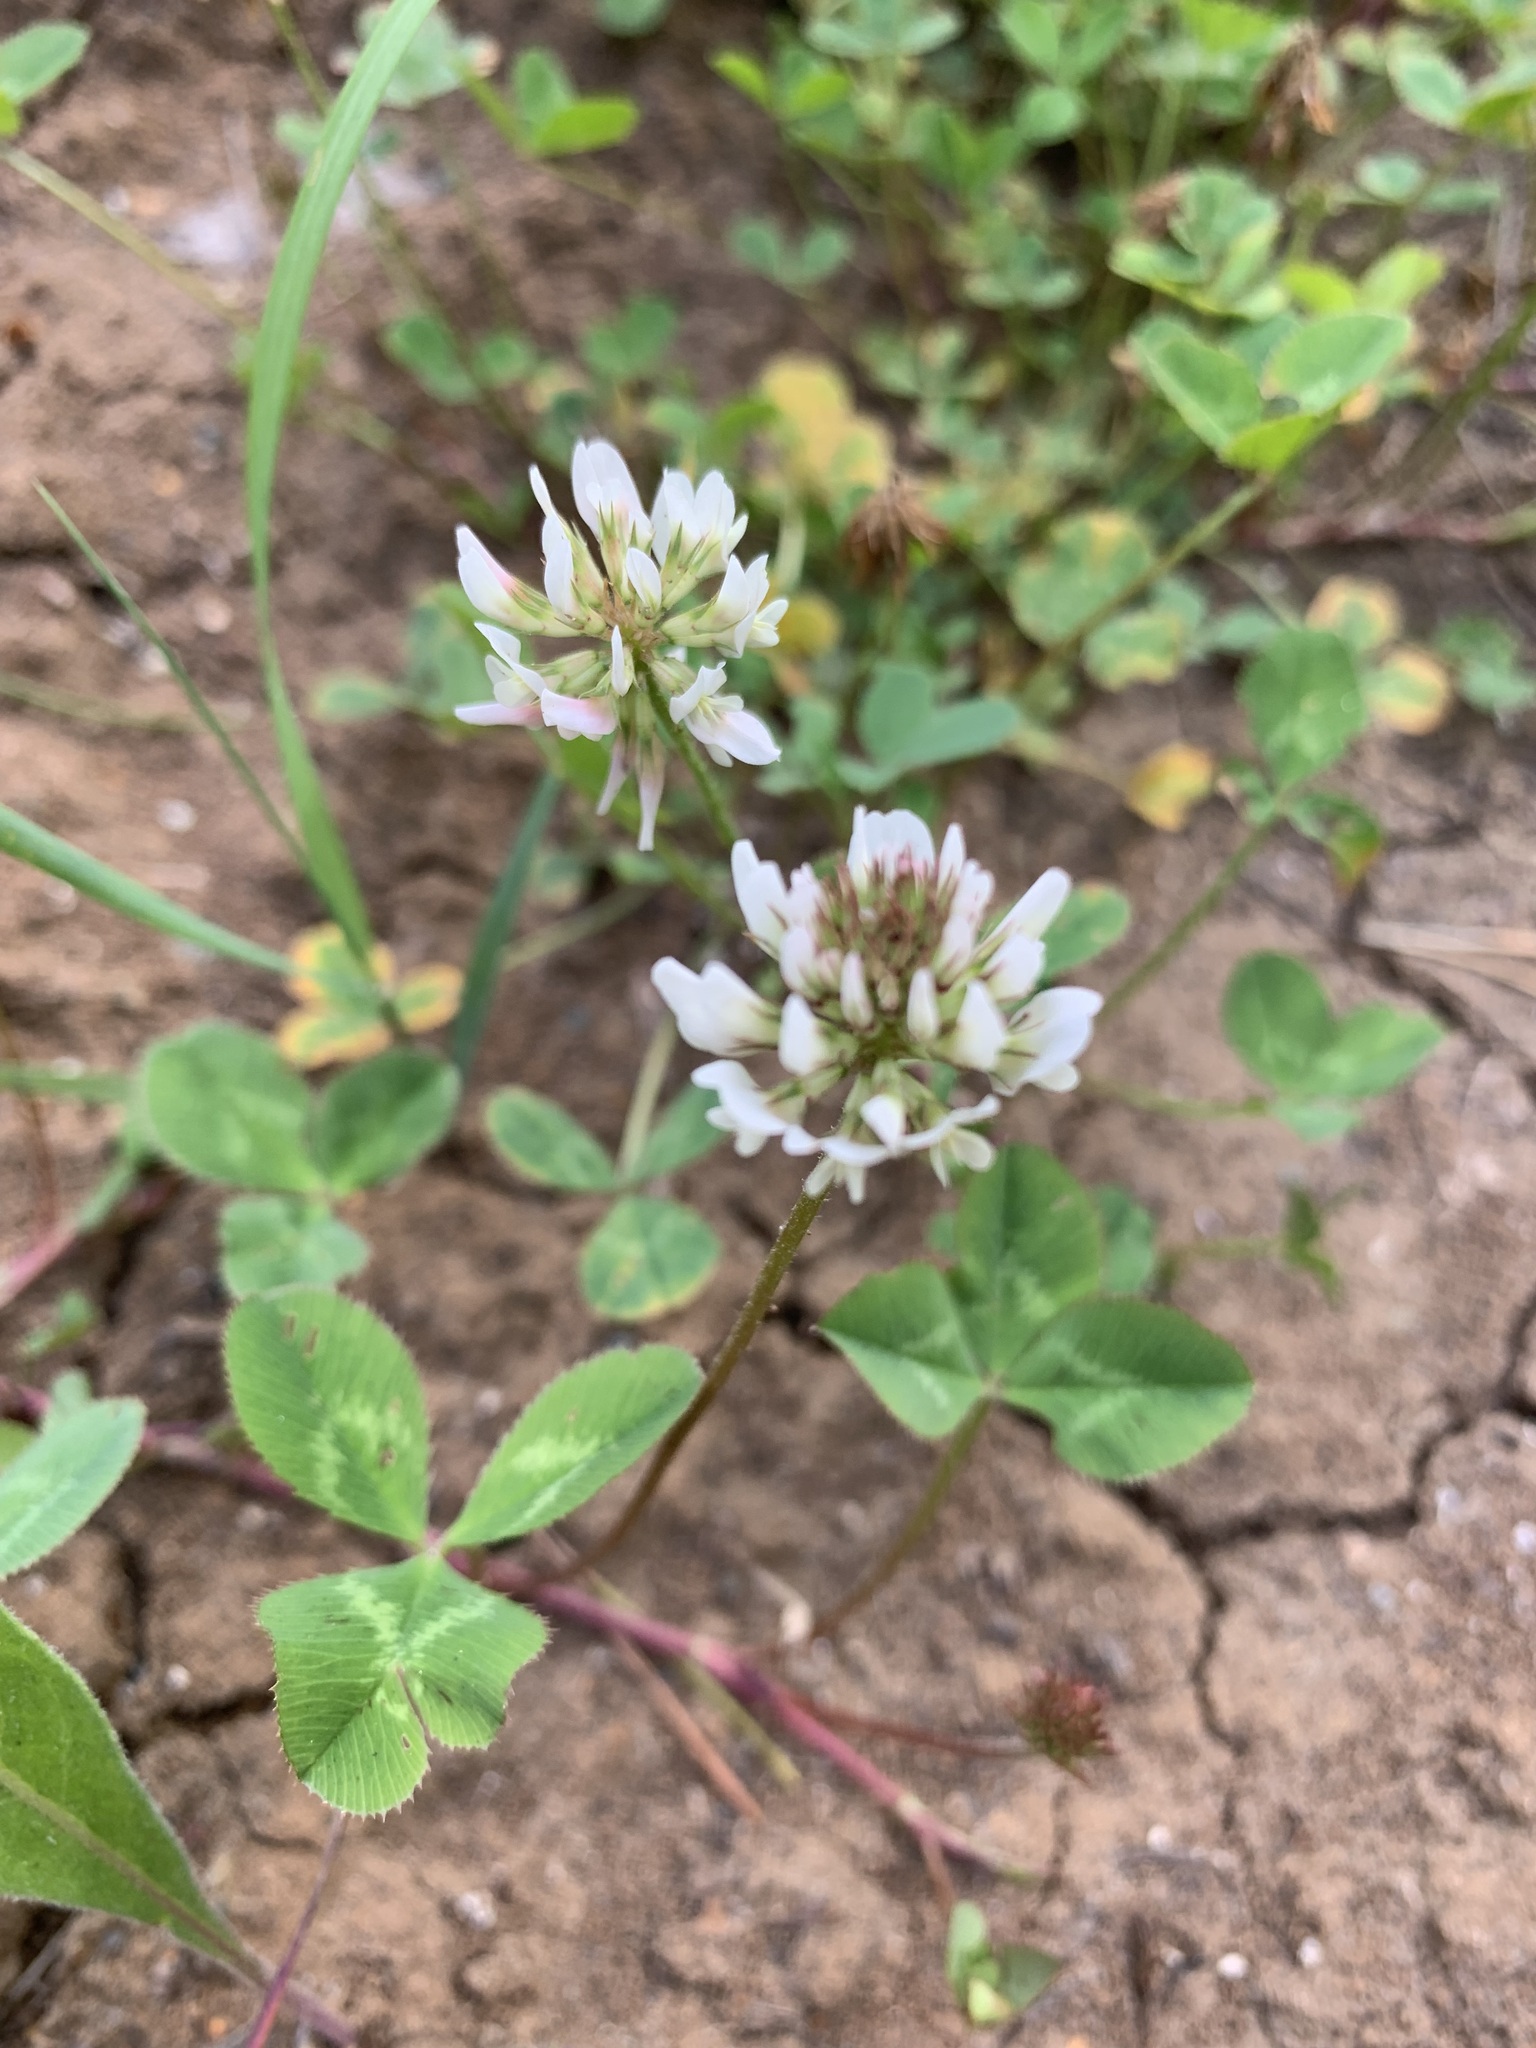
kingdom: Plantae
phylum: Tracheophyta
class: Magnoliopsida
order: Fabales
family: Fabaceae
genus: Trifolium
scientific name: Trifolium repens
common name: White clover
